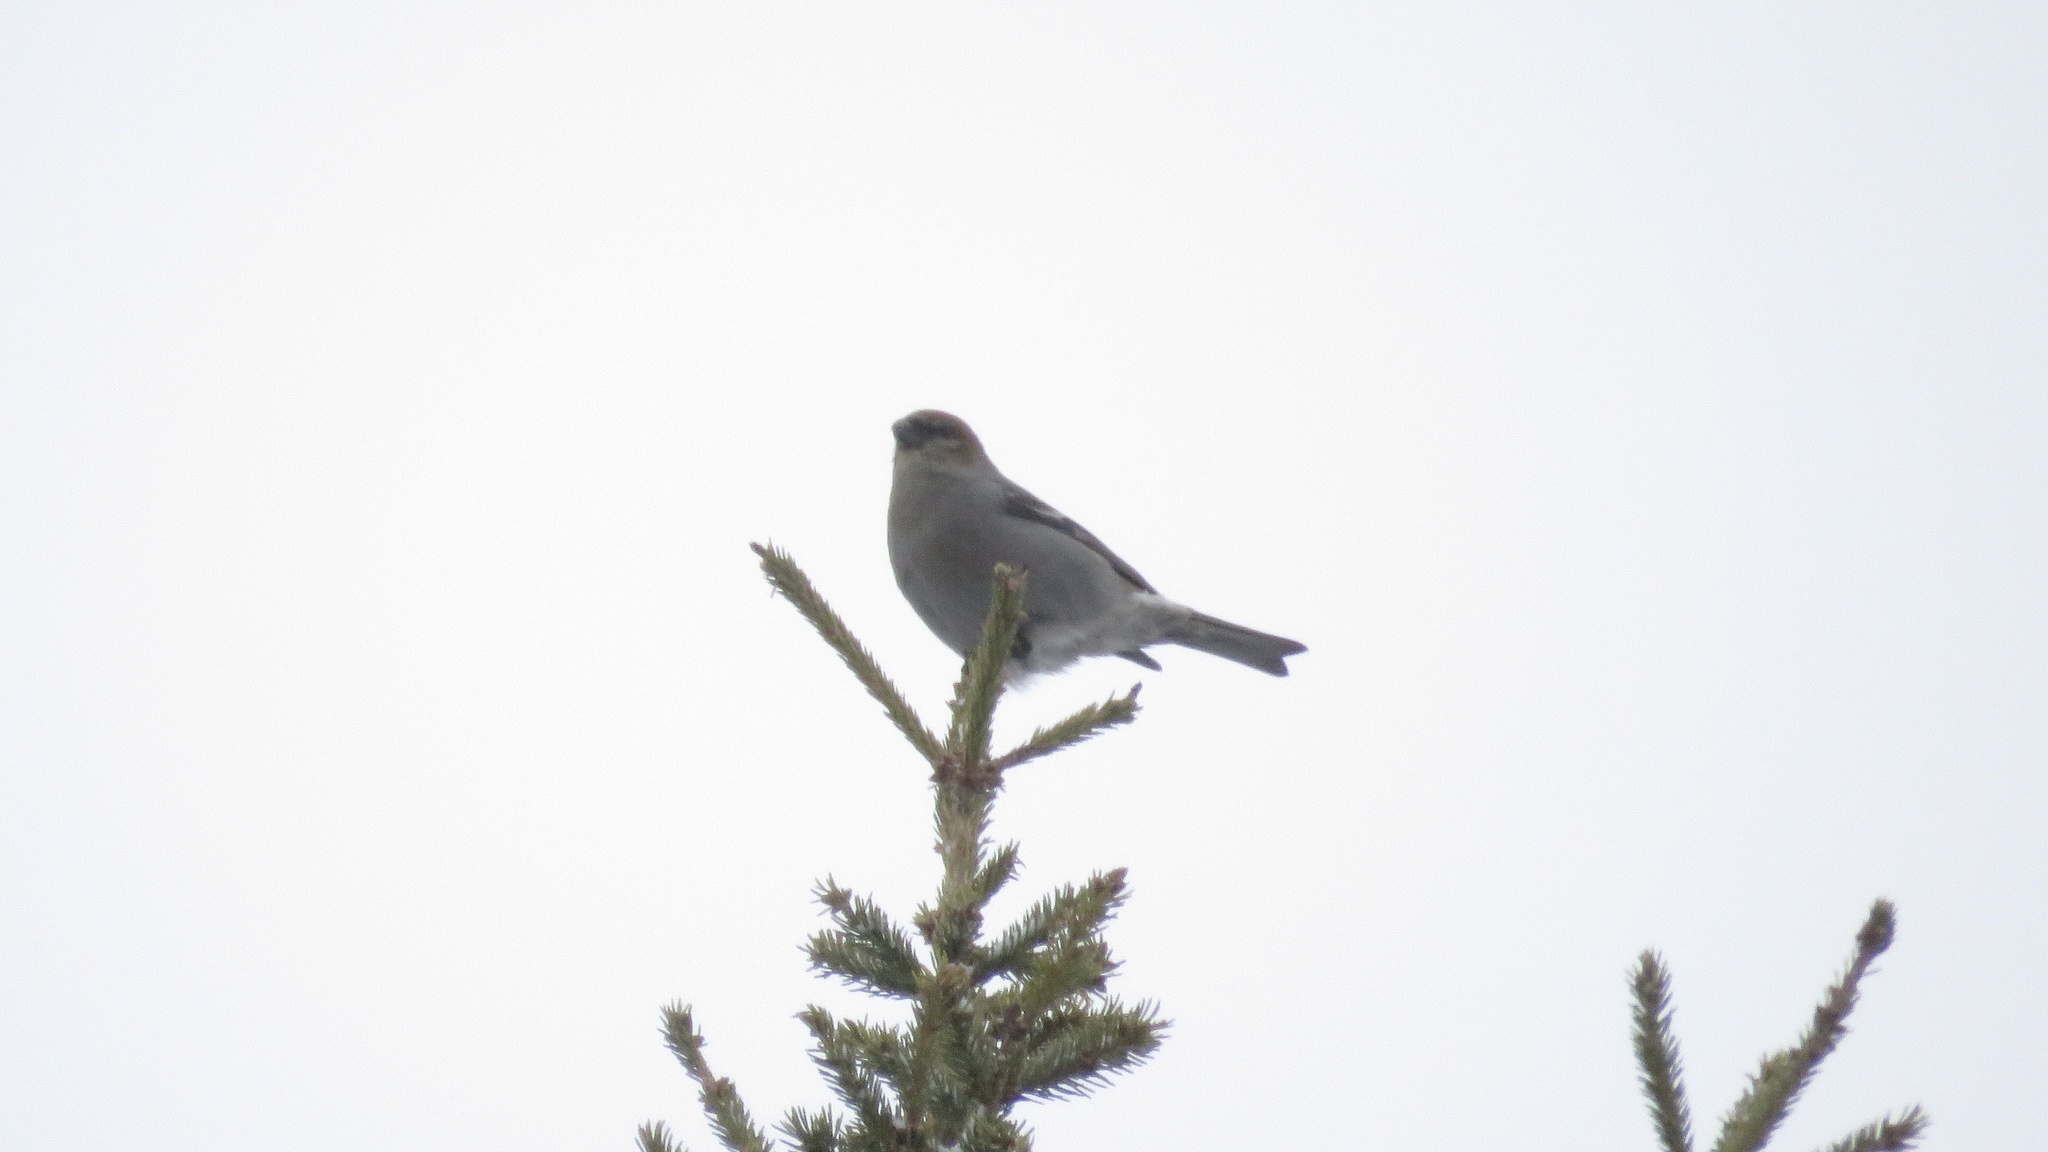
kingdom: Animalia
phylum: Chordata
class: Aves
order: Passeriformes
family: Fringillidae
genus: Pinicola
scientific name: Pinicola enucleator
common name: Pine grosbeak
